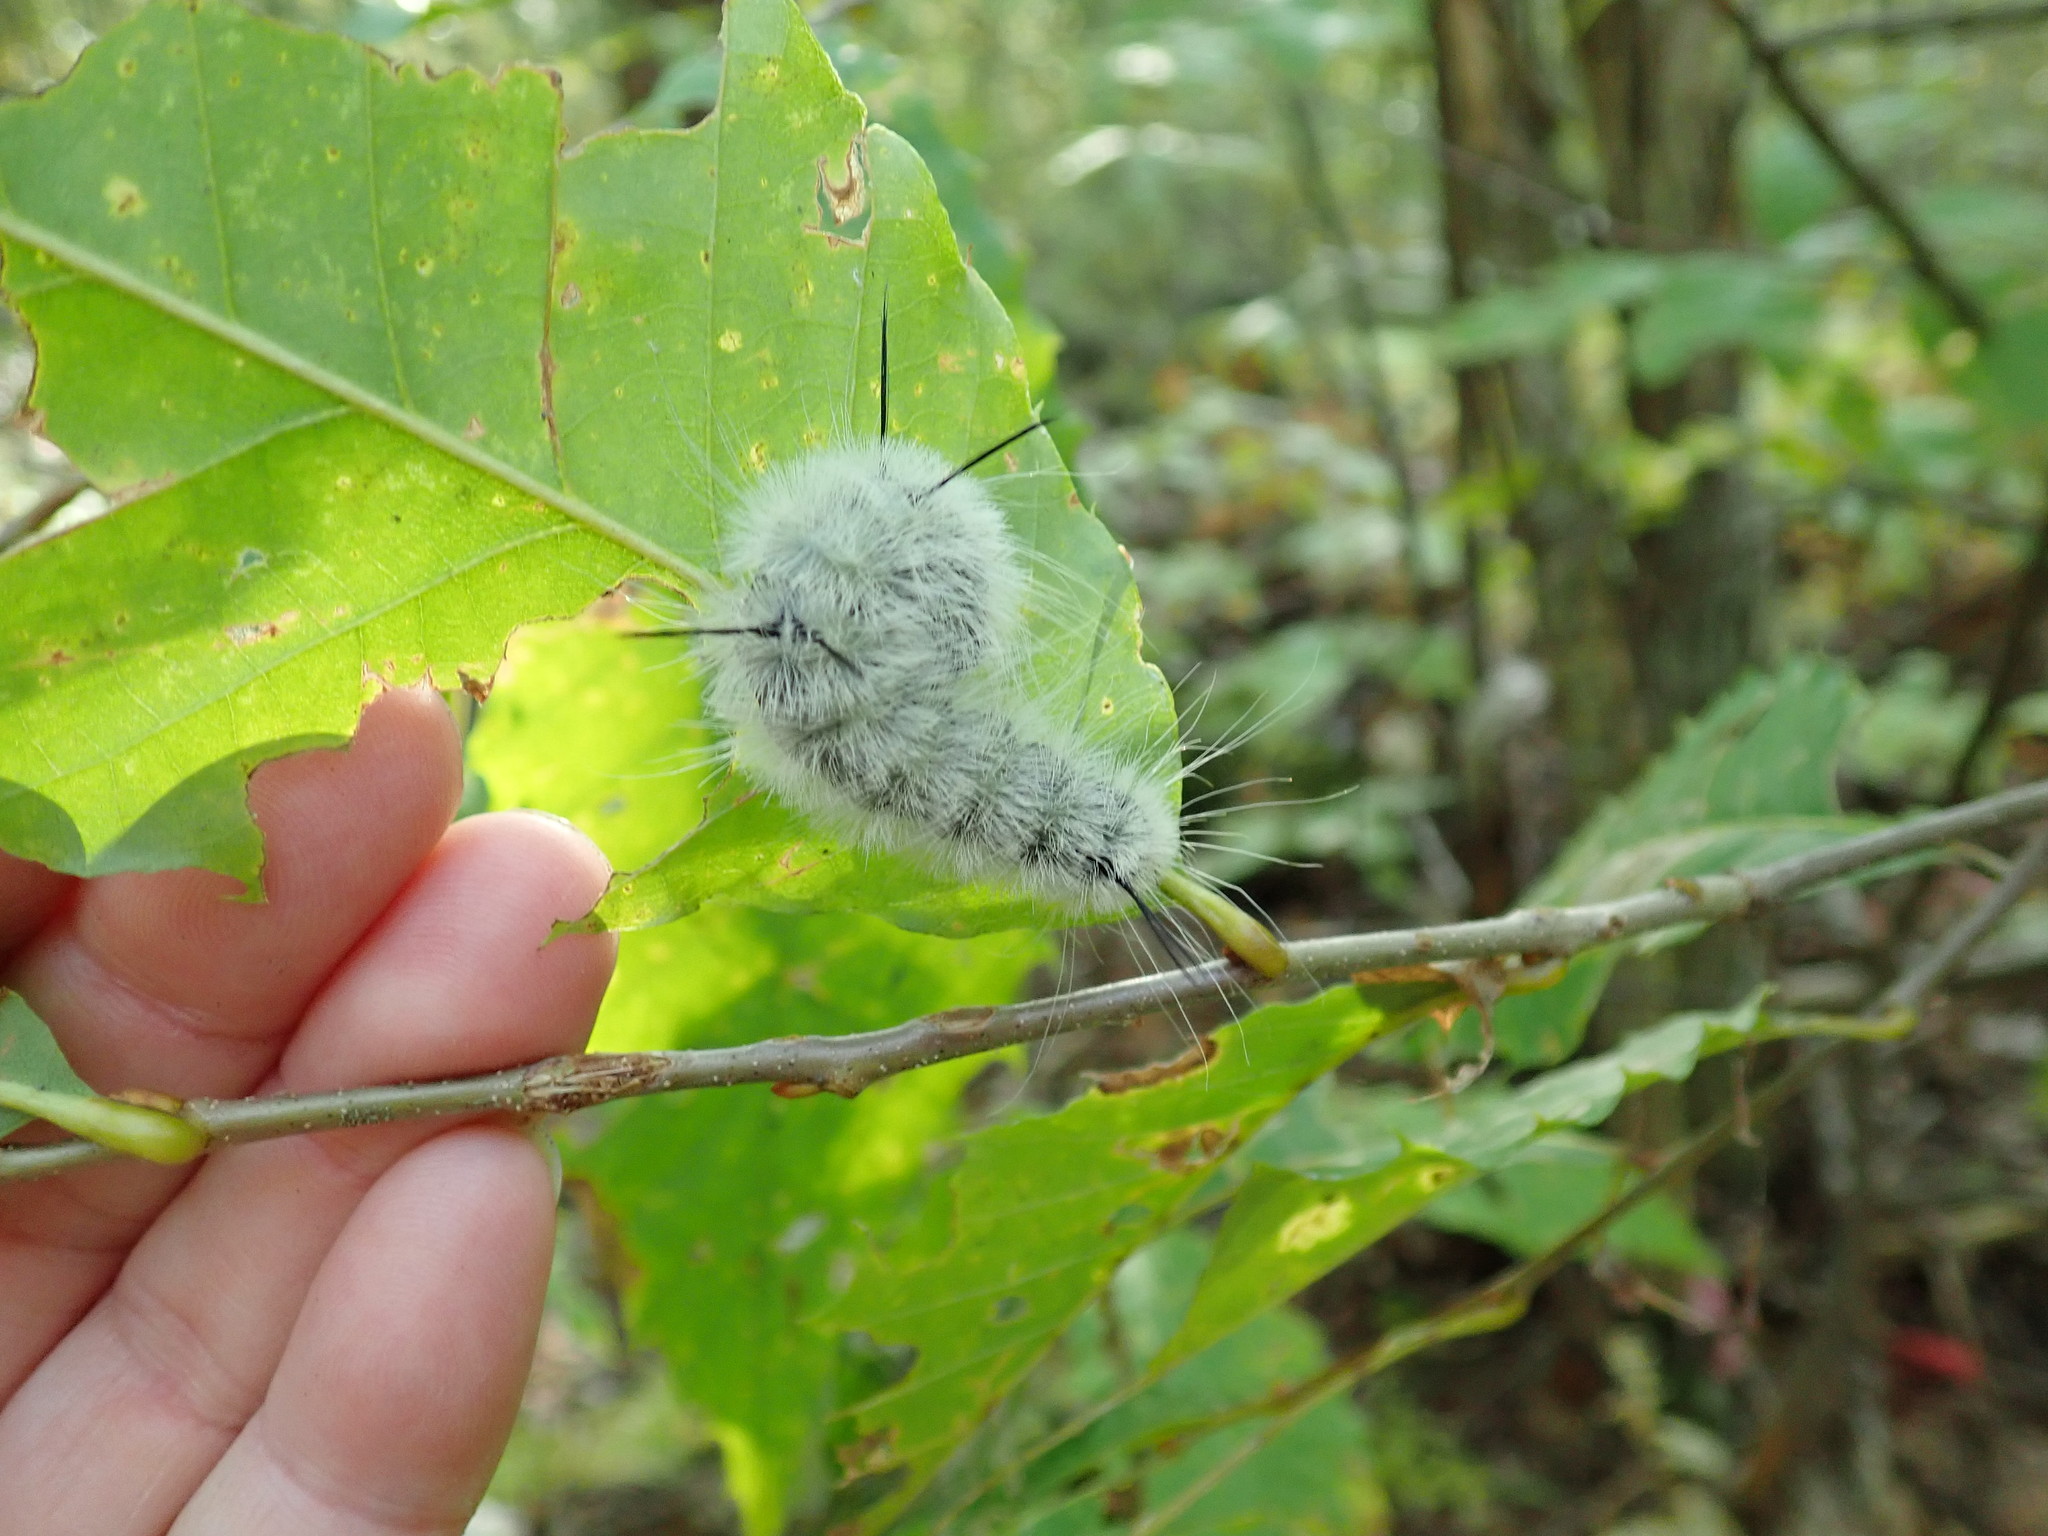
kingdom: Animalia
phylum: Arthropoda
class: Insecta
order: Lepidoptera
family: Noctuidae
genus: Acronicta
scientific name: Acronicta americana
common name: American dagger
